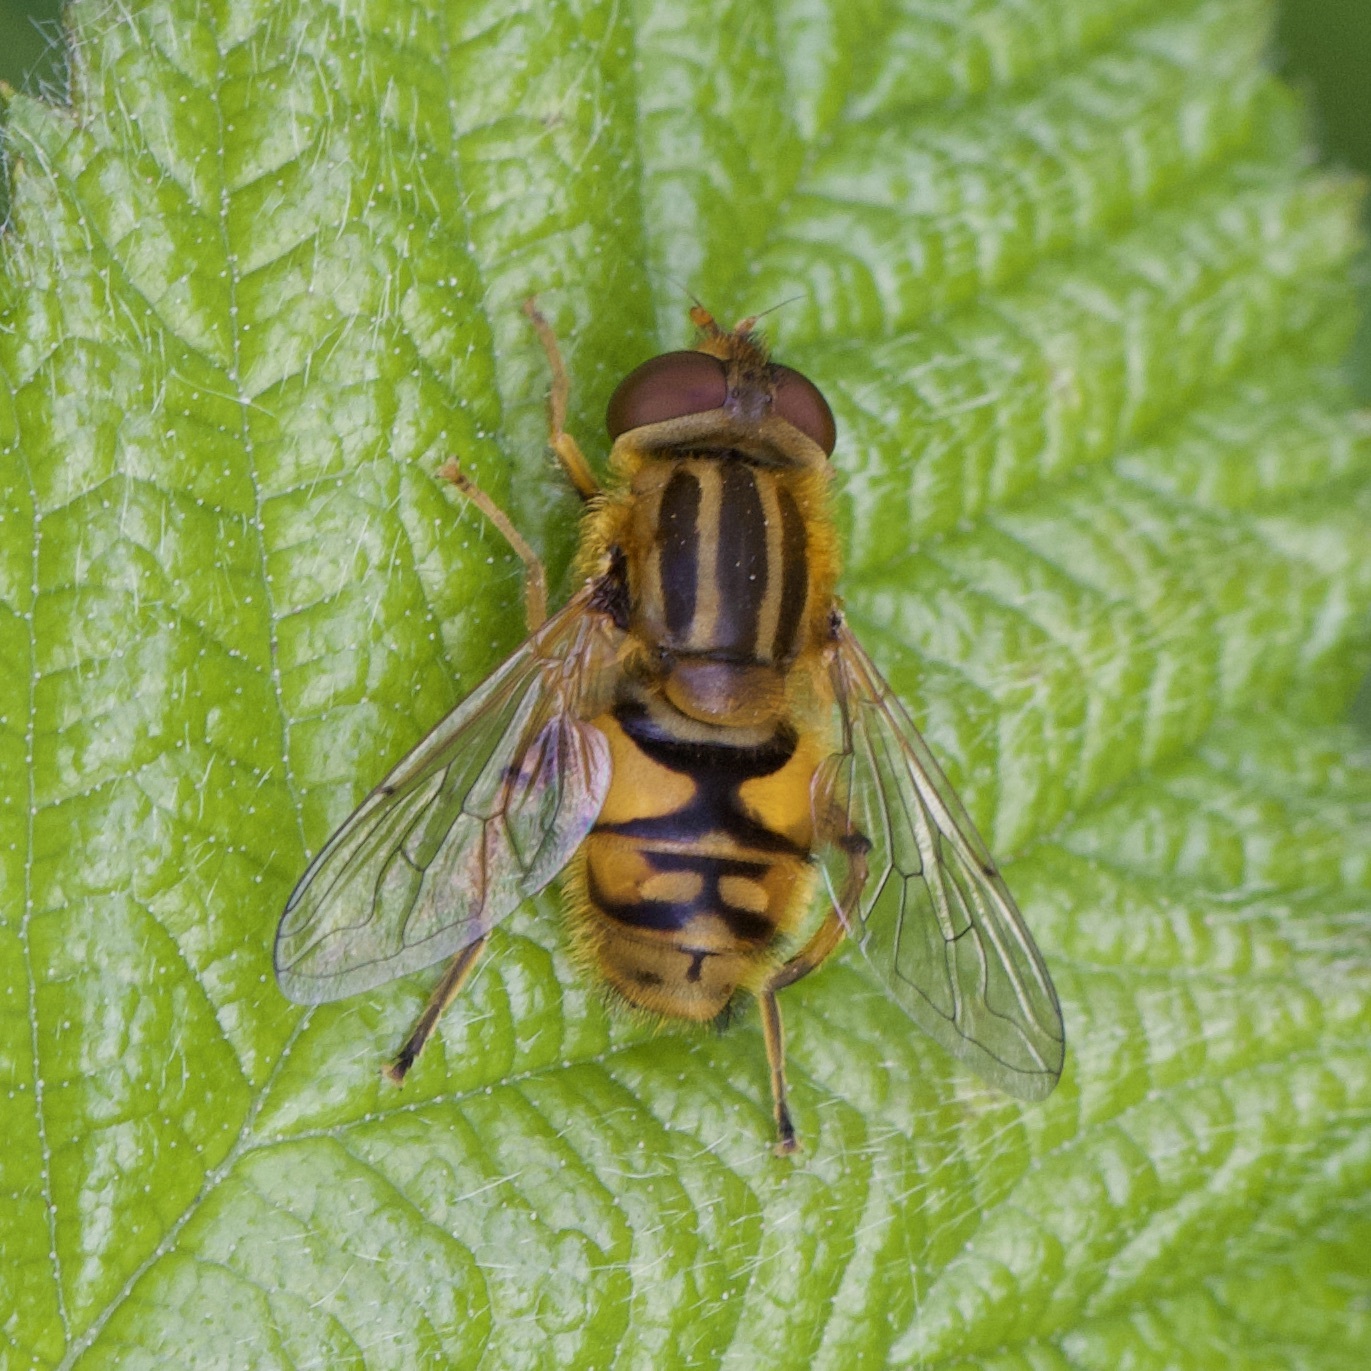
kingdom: Animalia
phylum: Arthropoda
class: Insecta
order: Diptera
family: Syrphidae
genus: Parhelophilus
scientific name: Parhelophilus
